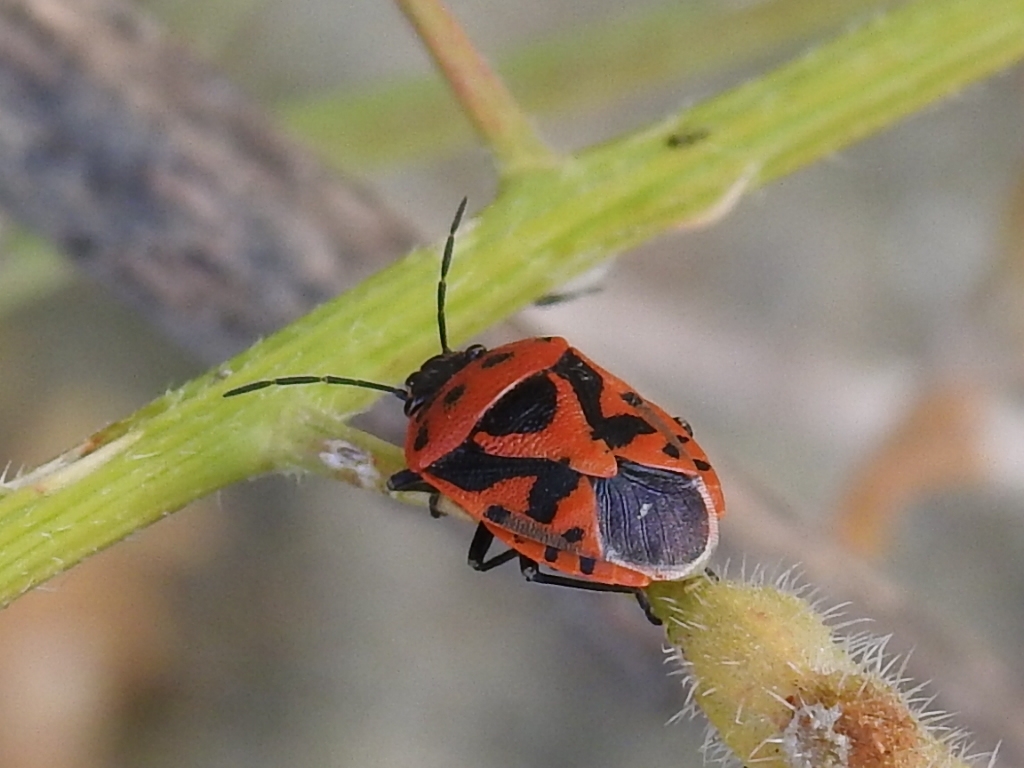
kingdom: Animalia
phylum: Arthropoda
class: Insecta
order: Hemiptera
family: Pentatomidae
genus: Eurydema
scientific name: Eurydema ornata
